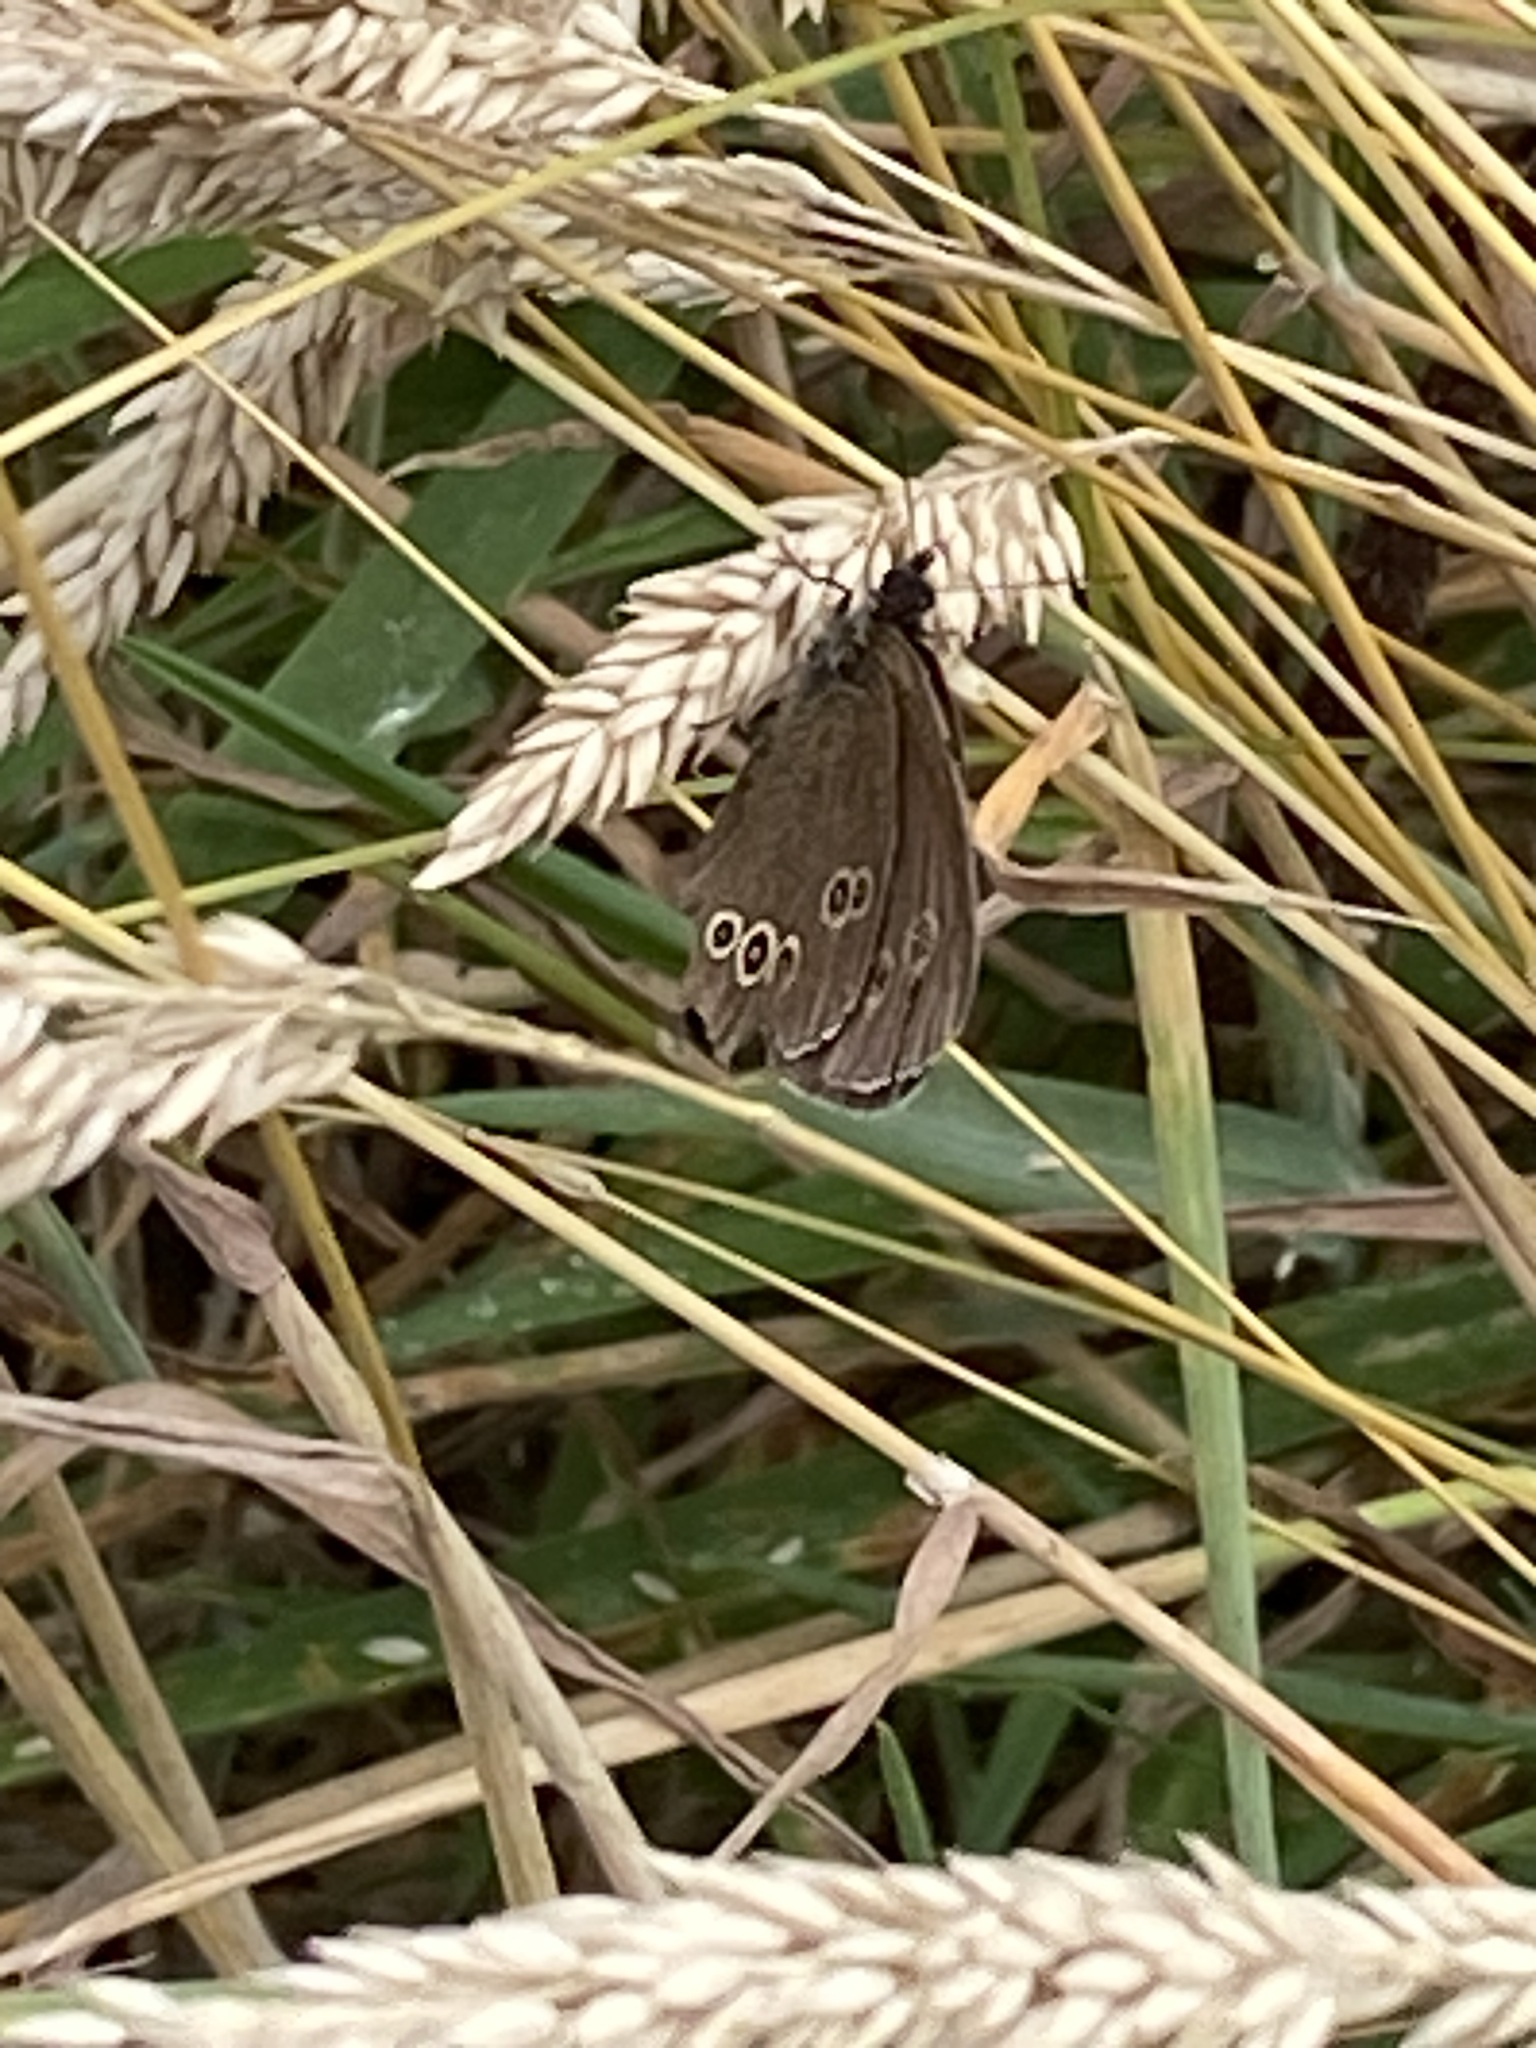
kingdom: Animalia
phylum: Arthropoda
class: Insecta
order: Lepidoptera
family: Nymphalidae
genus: Aphantopus
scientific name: Aphantopus hyperantus
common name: Ringlet
